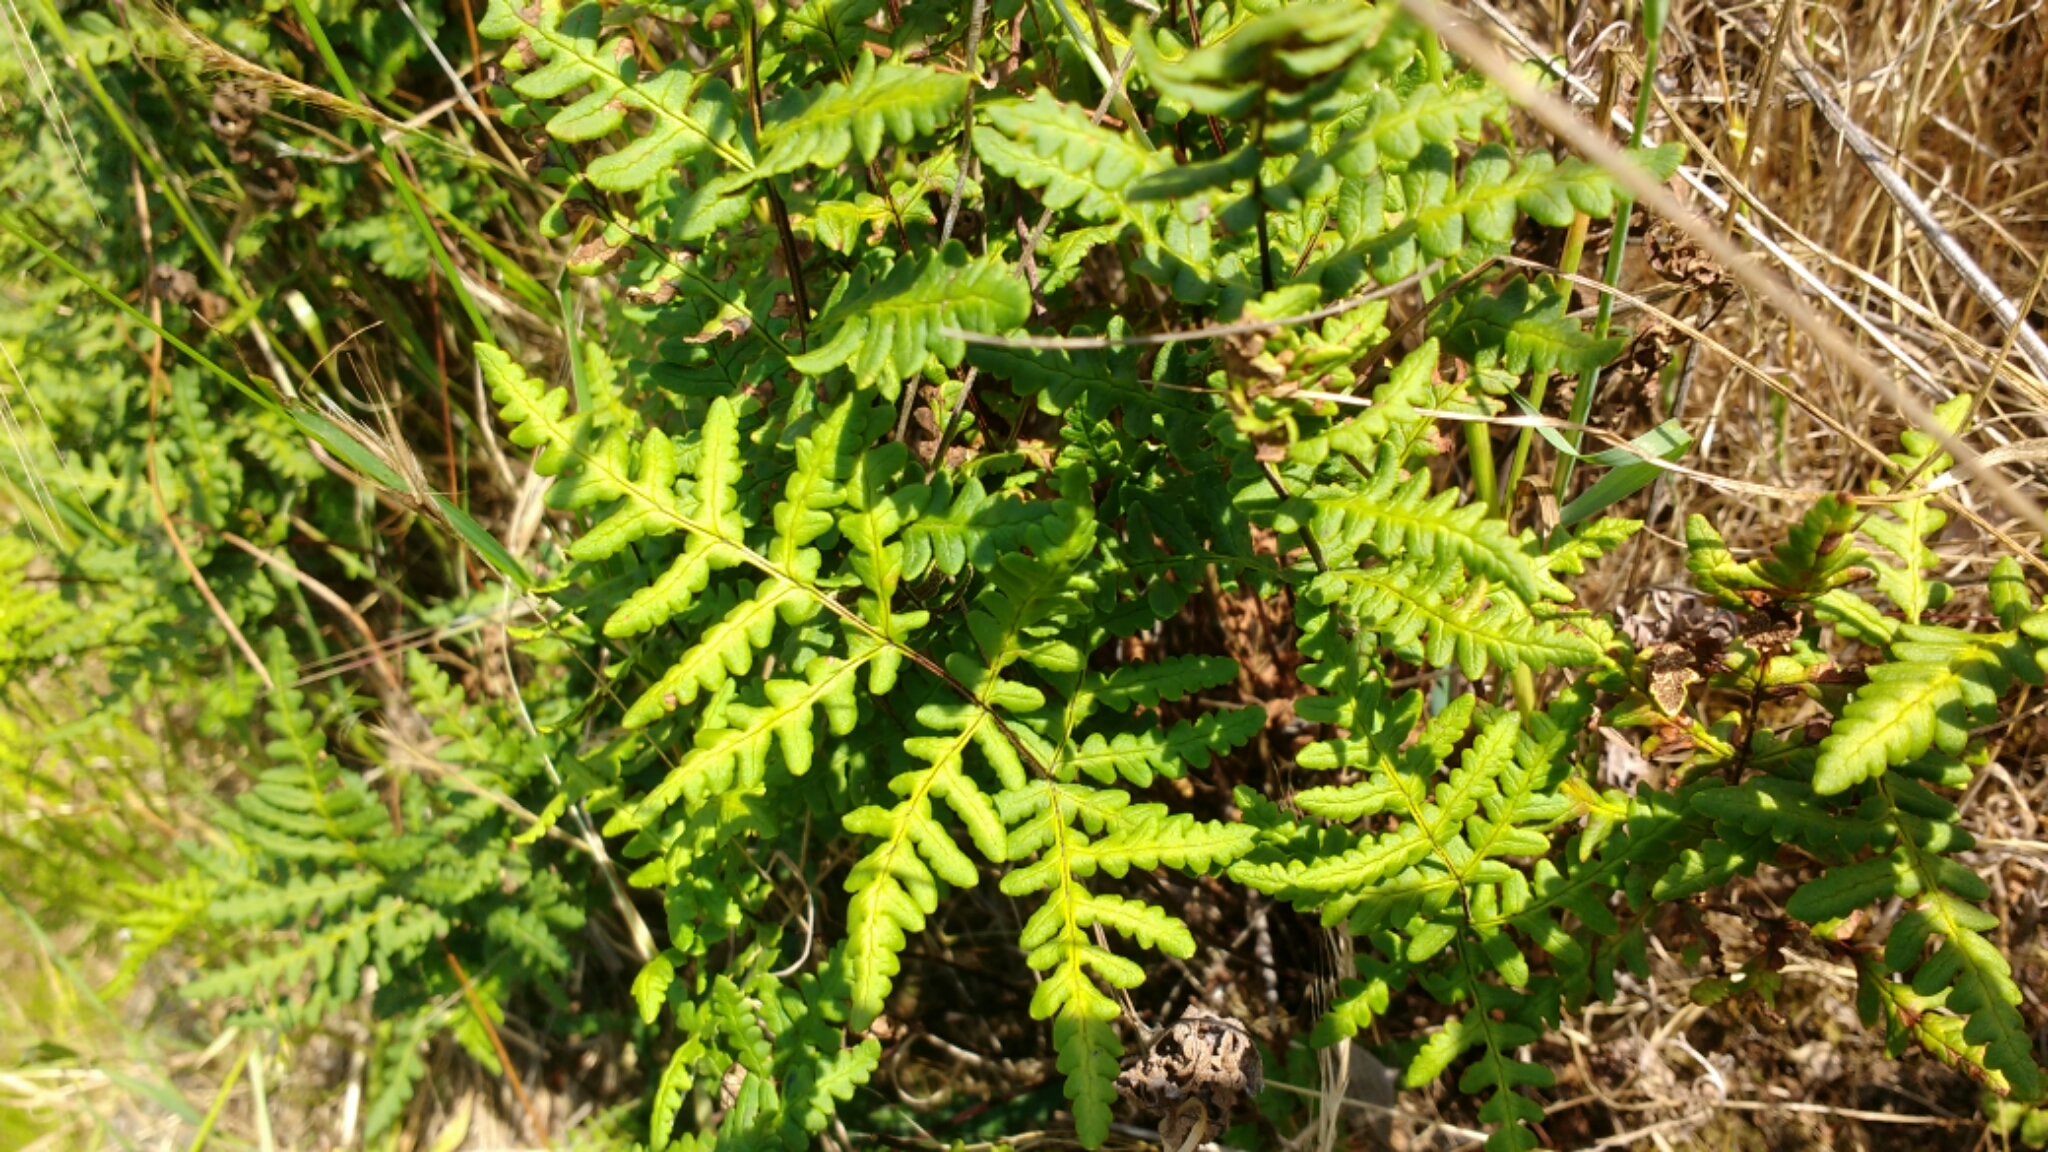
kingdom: Plantae
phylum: Tracheophyta
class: Polypodiopsida
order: Polypodiales
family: Pteridaceae
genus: Pentagramma
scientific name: Pentagramma triangularis
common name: Gold fern
